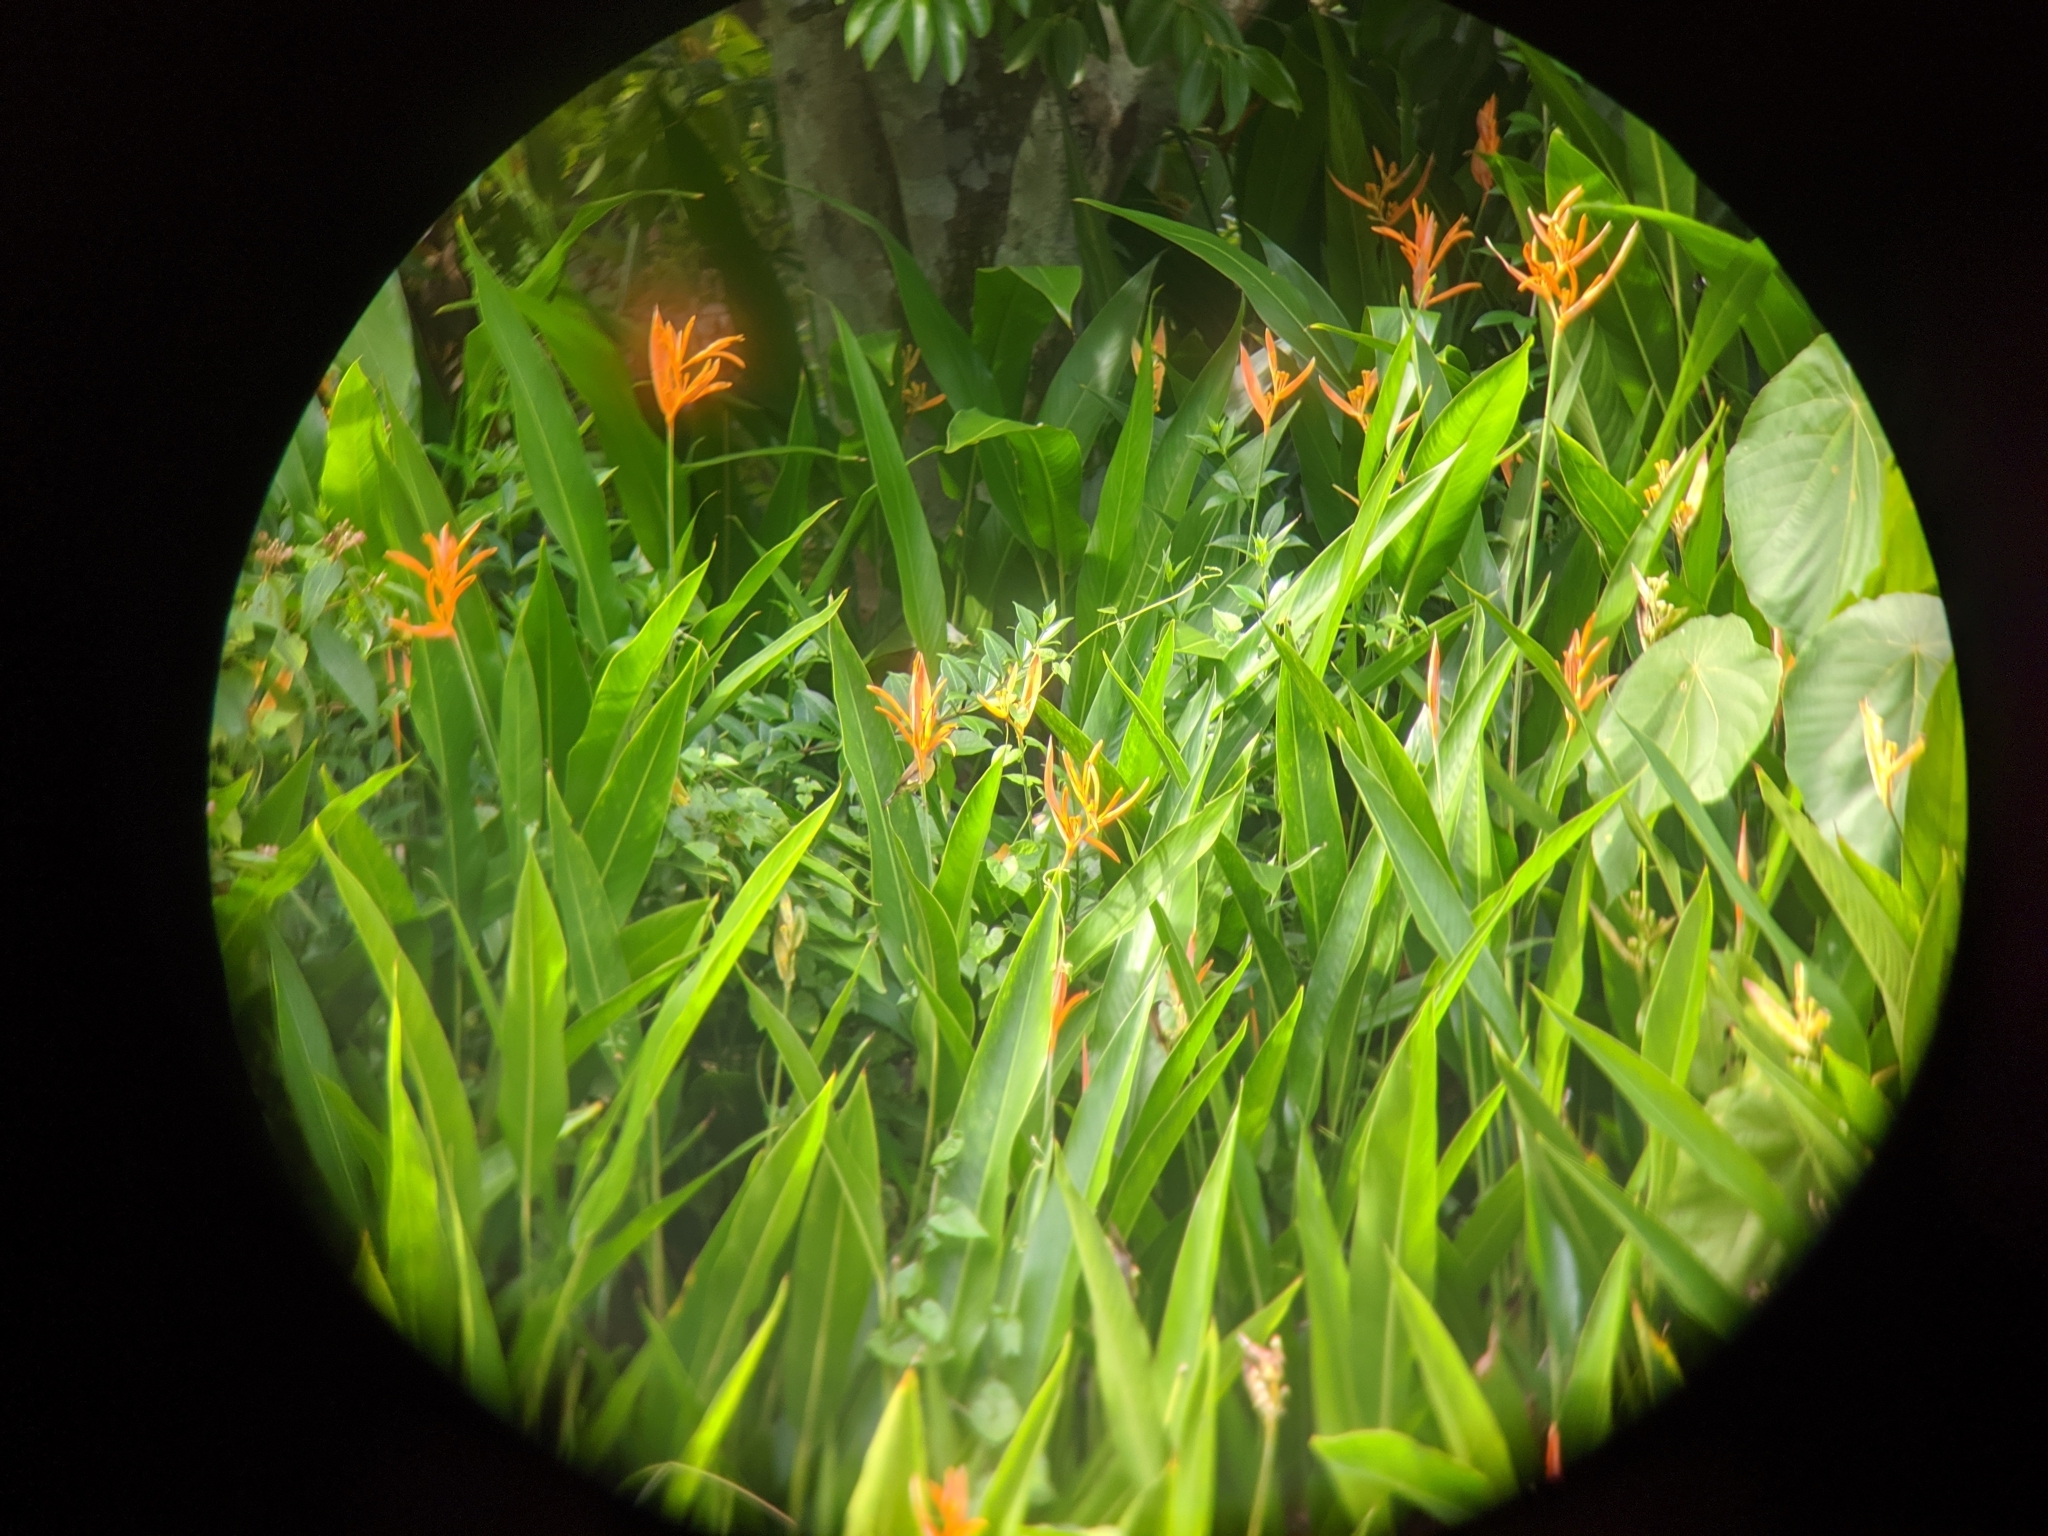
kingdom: Animalia
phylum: Chordata
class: Aves
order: Passeriformes
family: Nectariniidae
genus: Cinnyris
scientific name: Cinnyris
